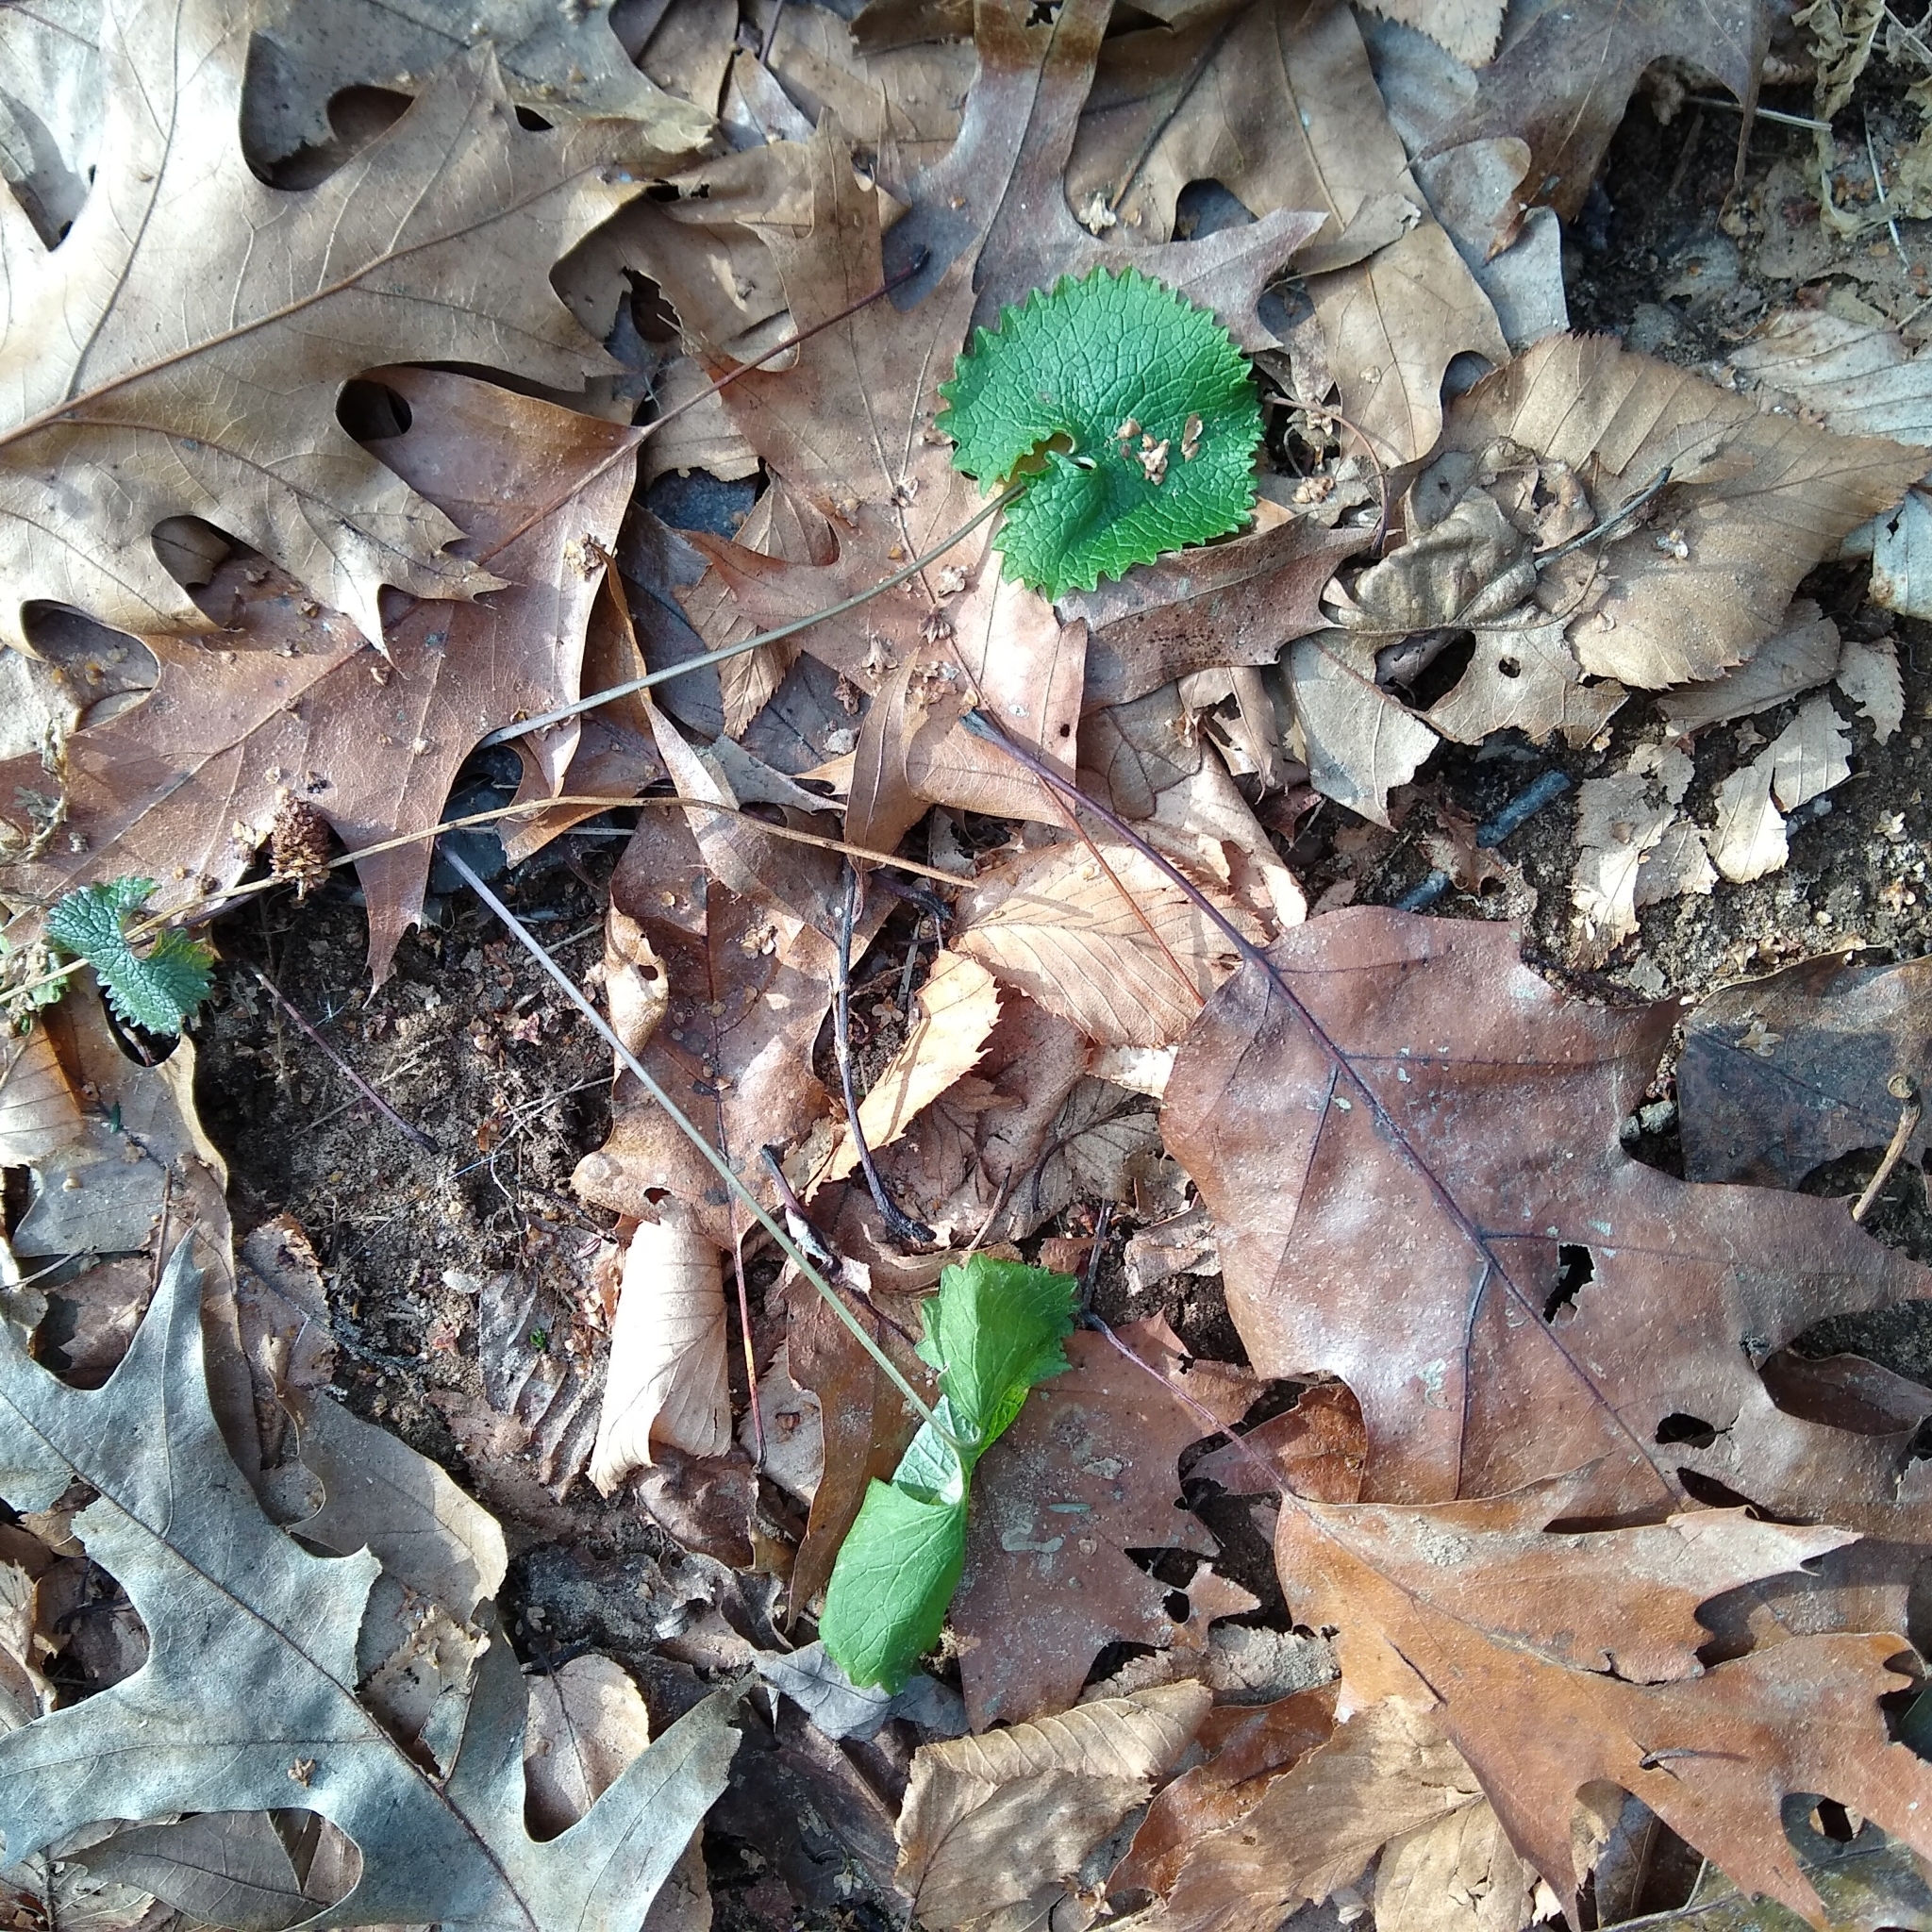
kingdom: Plantae
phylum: Tracheophyta
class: Magnoliopsida
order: Brassicales
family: Brassicaceae
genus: Alliaria
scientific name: Alliaria petiolata
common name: Garlic mustard
